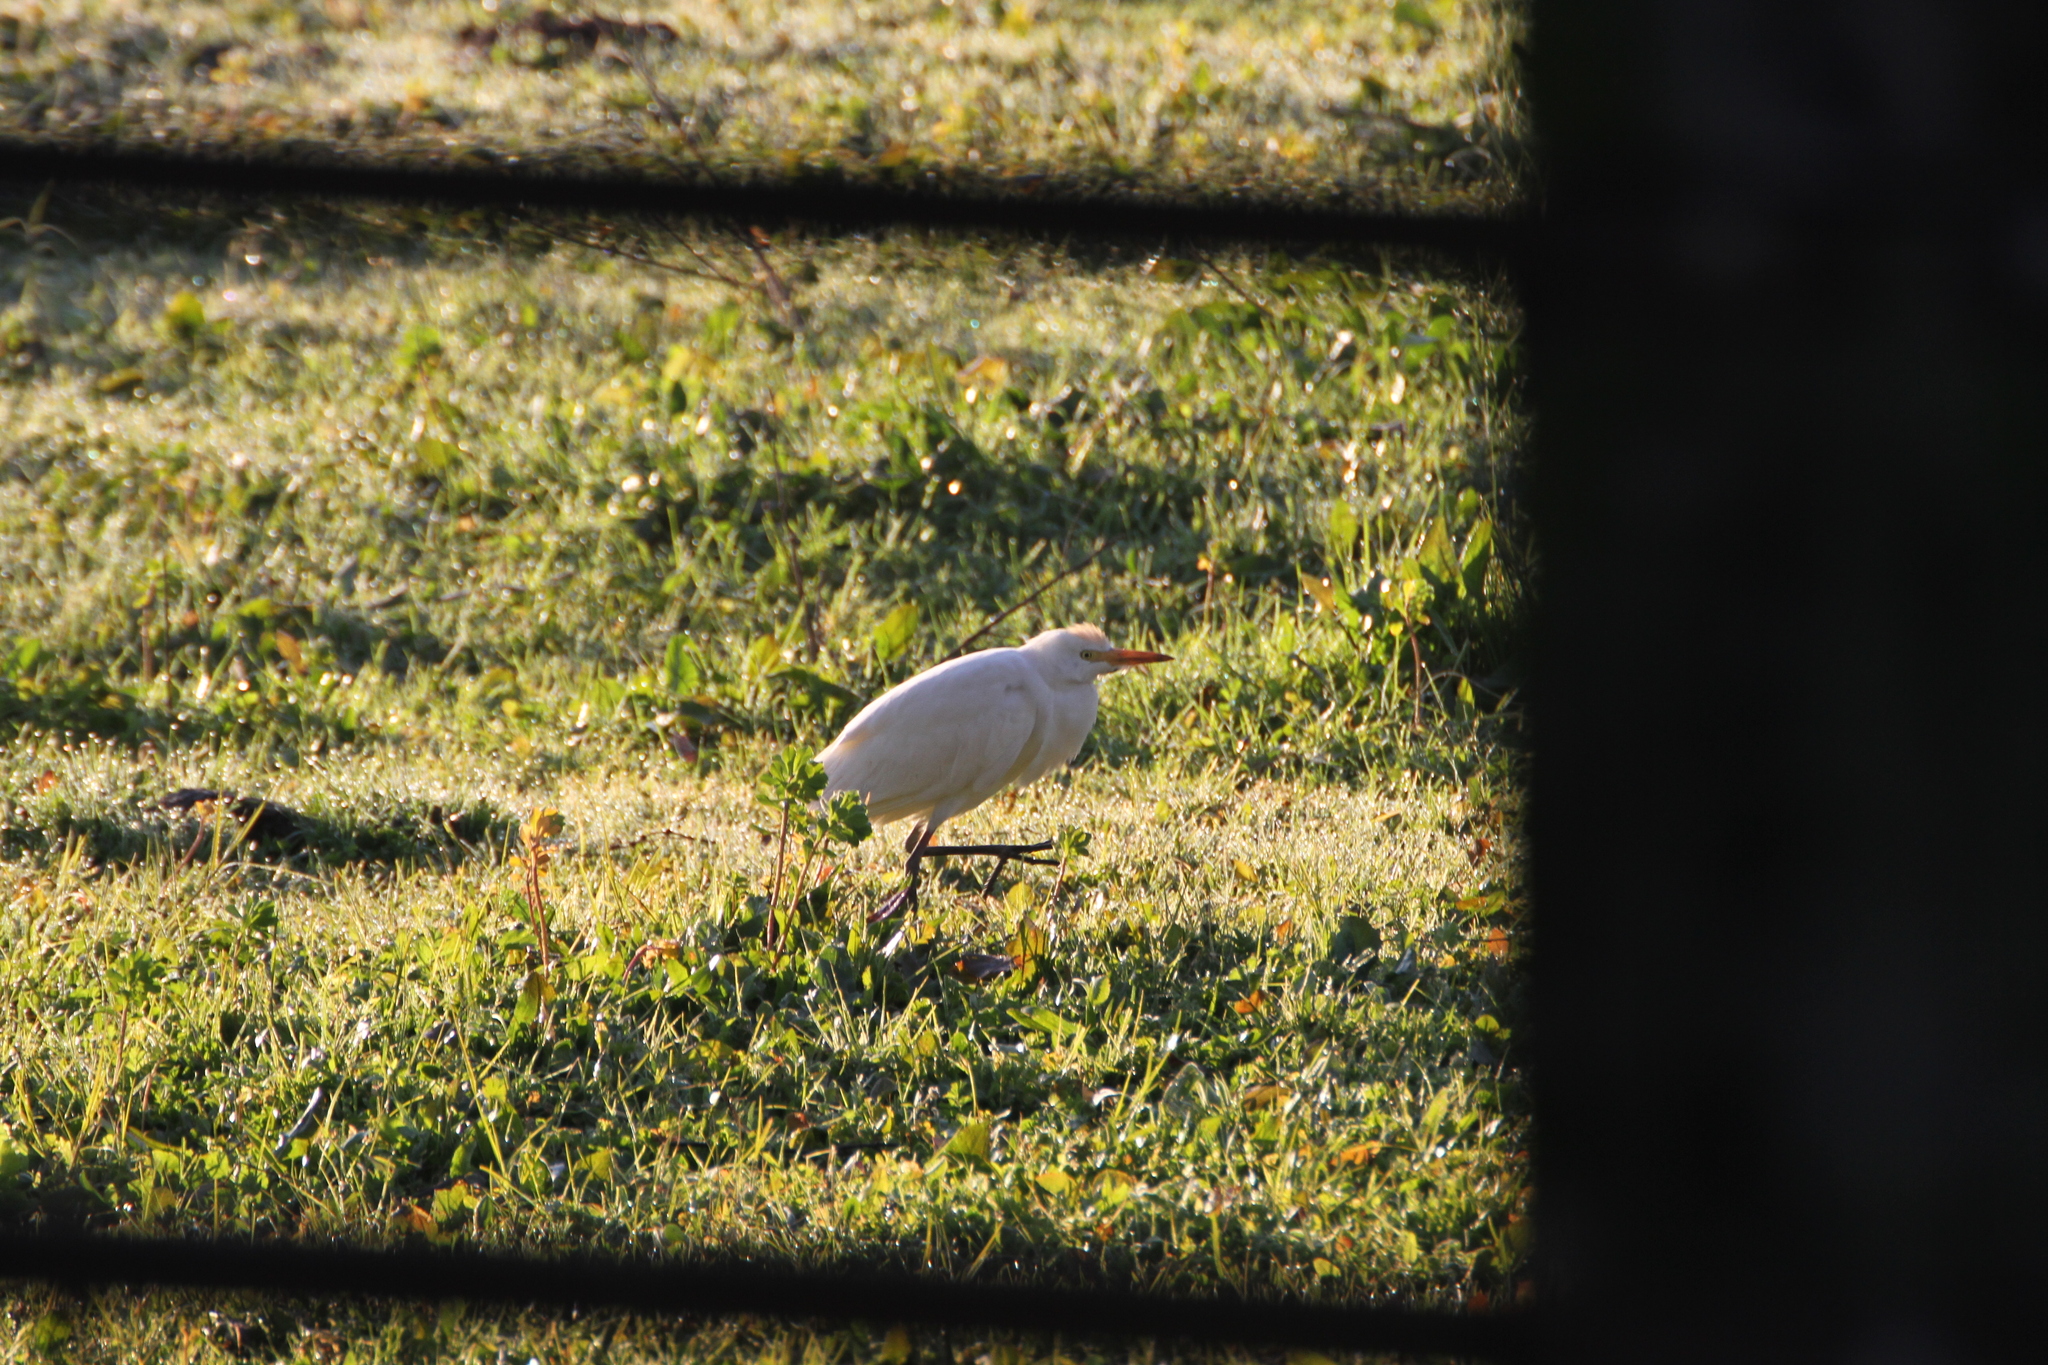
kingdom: Animalia
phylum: Chordata
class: Aves
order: Pelecaniformes
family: Ardeidae
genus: Bubulcus
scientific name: Bubulcus ibis
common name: Cattle egret
